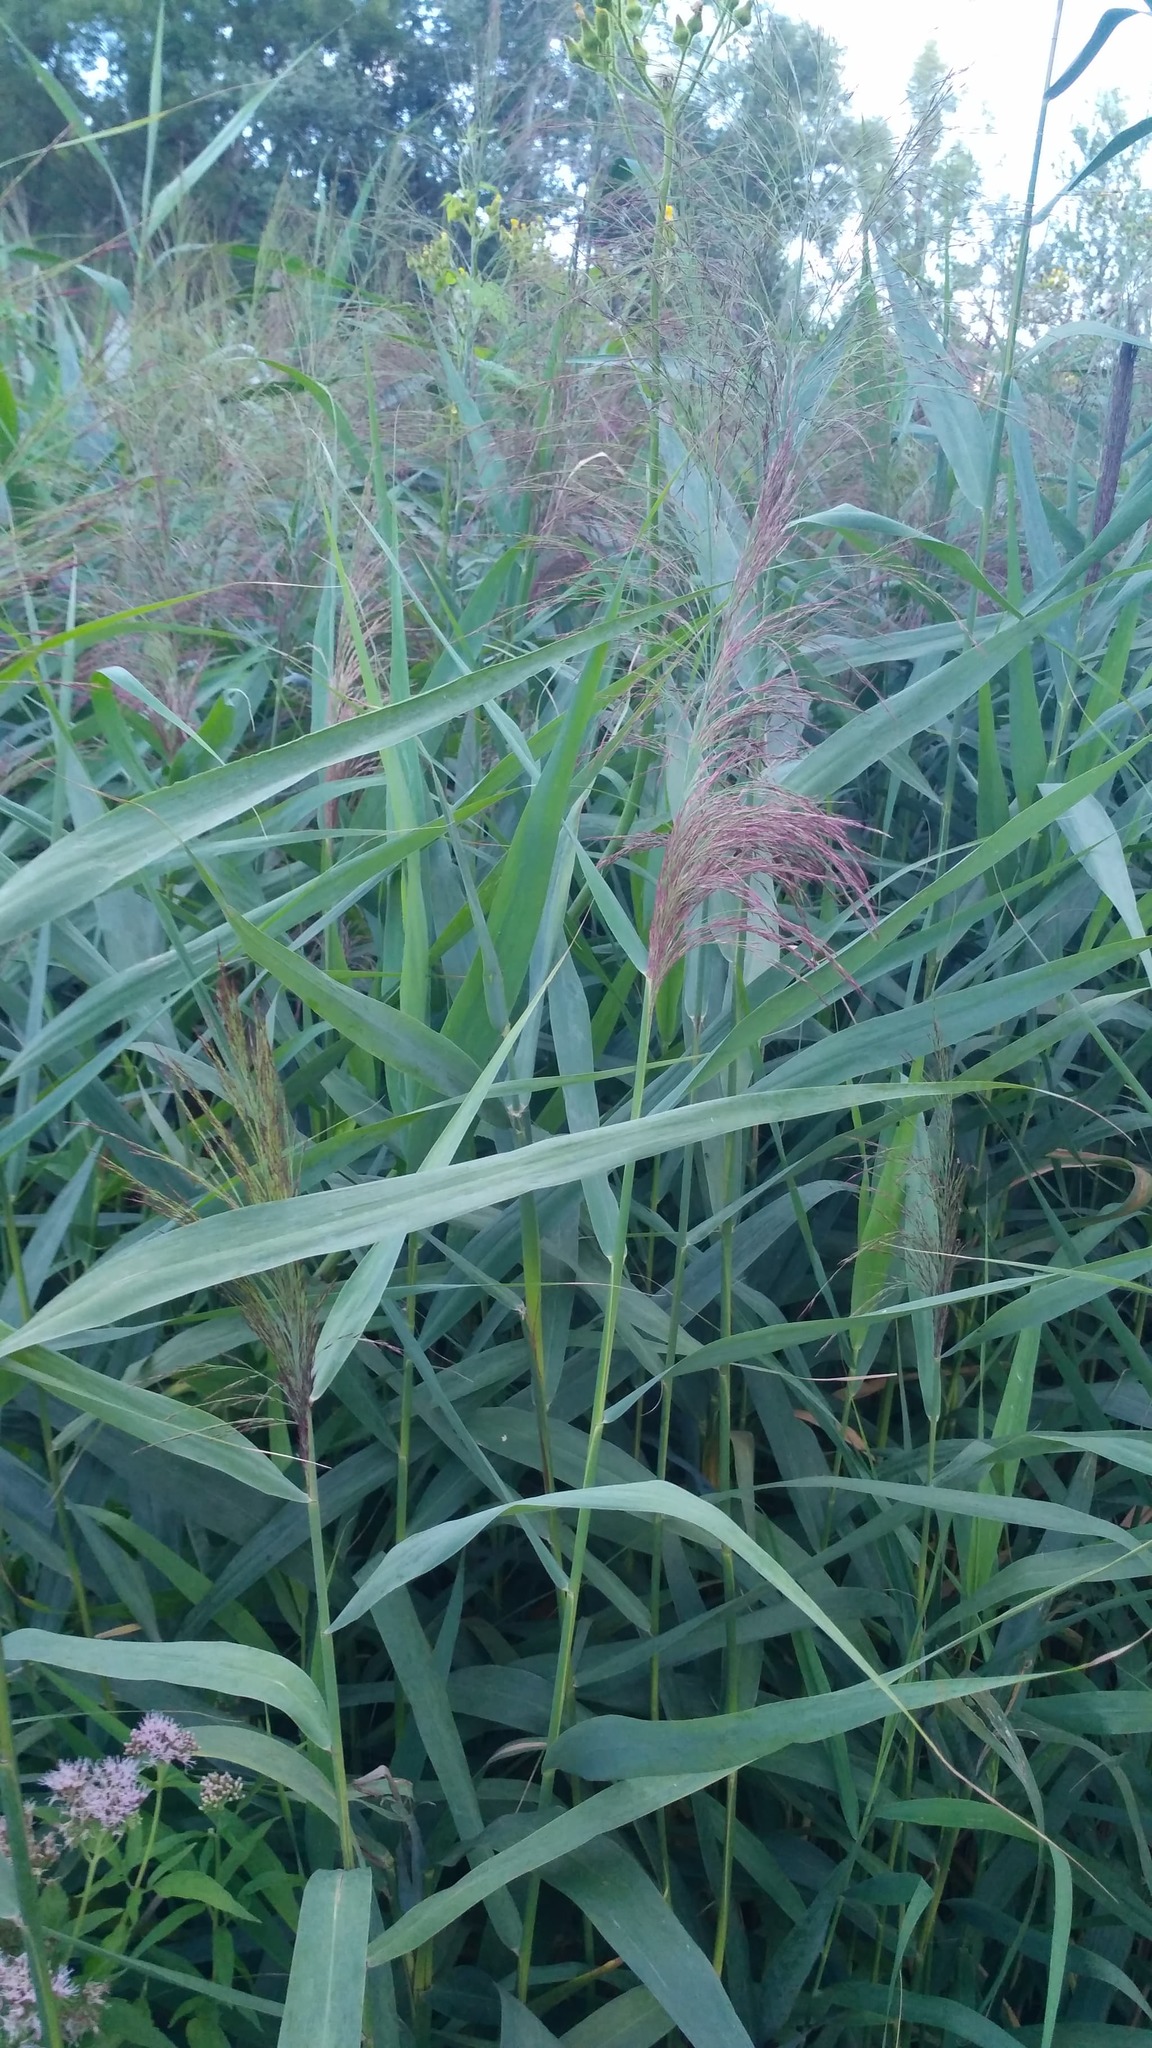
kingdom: Plantae
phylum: Tracheophyta
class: Liliopsida
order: Poales
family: Poaceae
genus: Phragmites
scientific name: Phragmites australis
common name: Common reed
